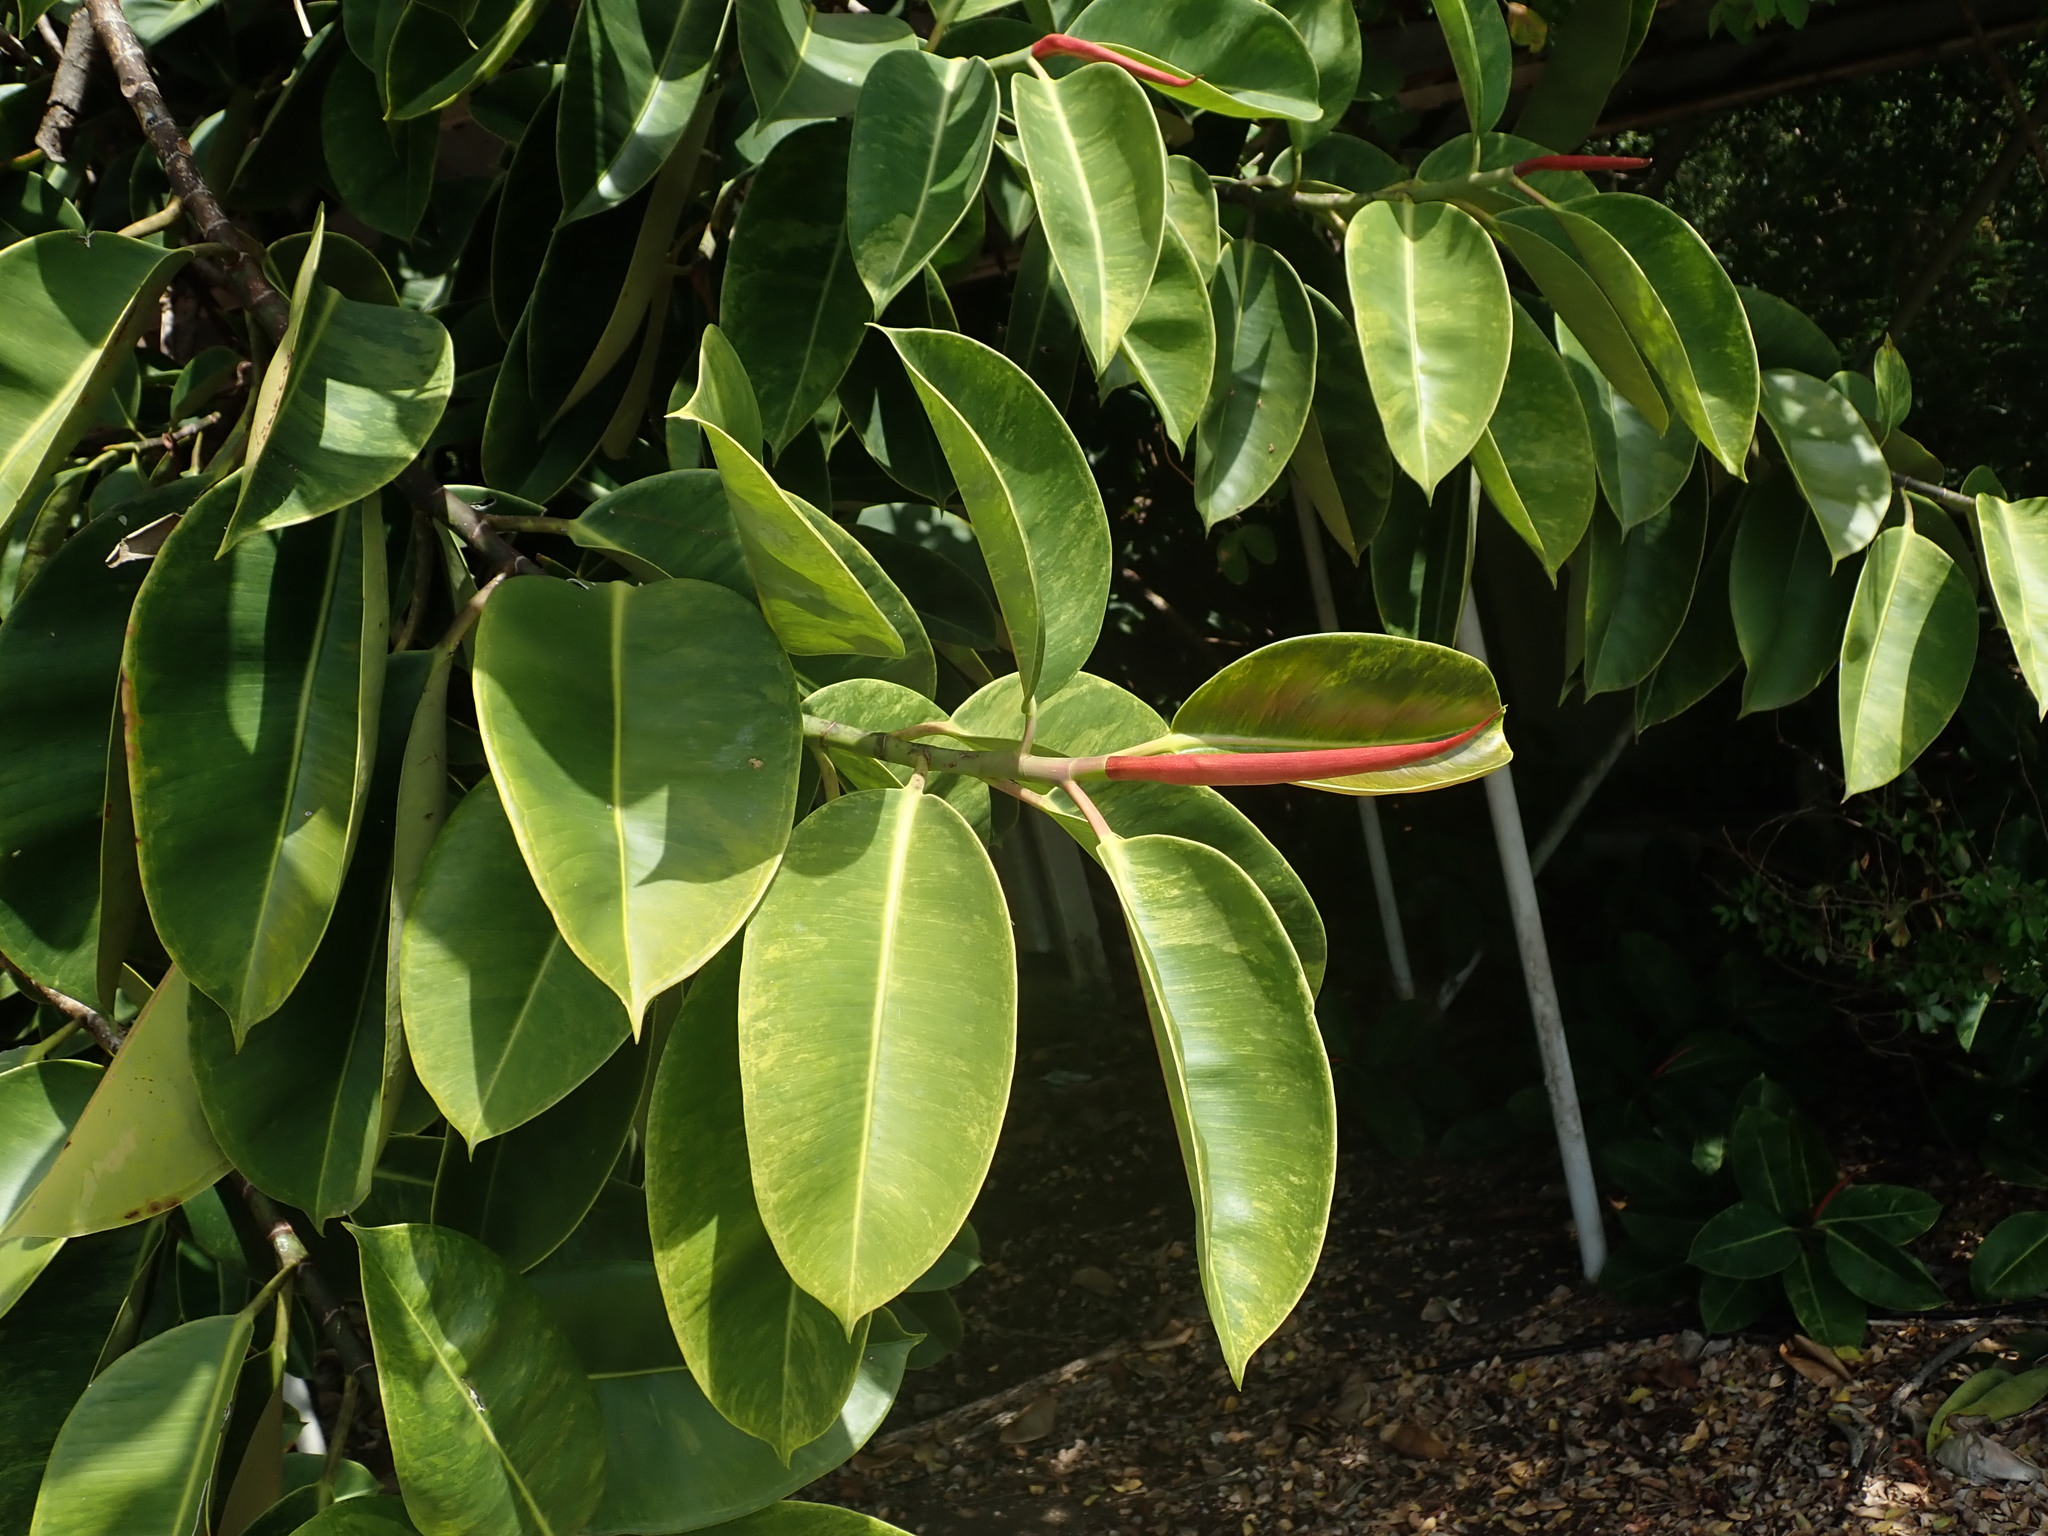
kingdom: Plantae
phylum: Tracheophyta
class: Magnoliopsida
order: Rosales
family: Moraceae
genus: Ficus
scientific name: Ficus elastica
